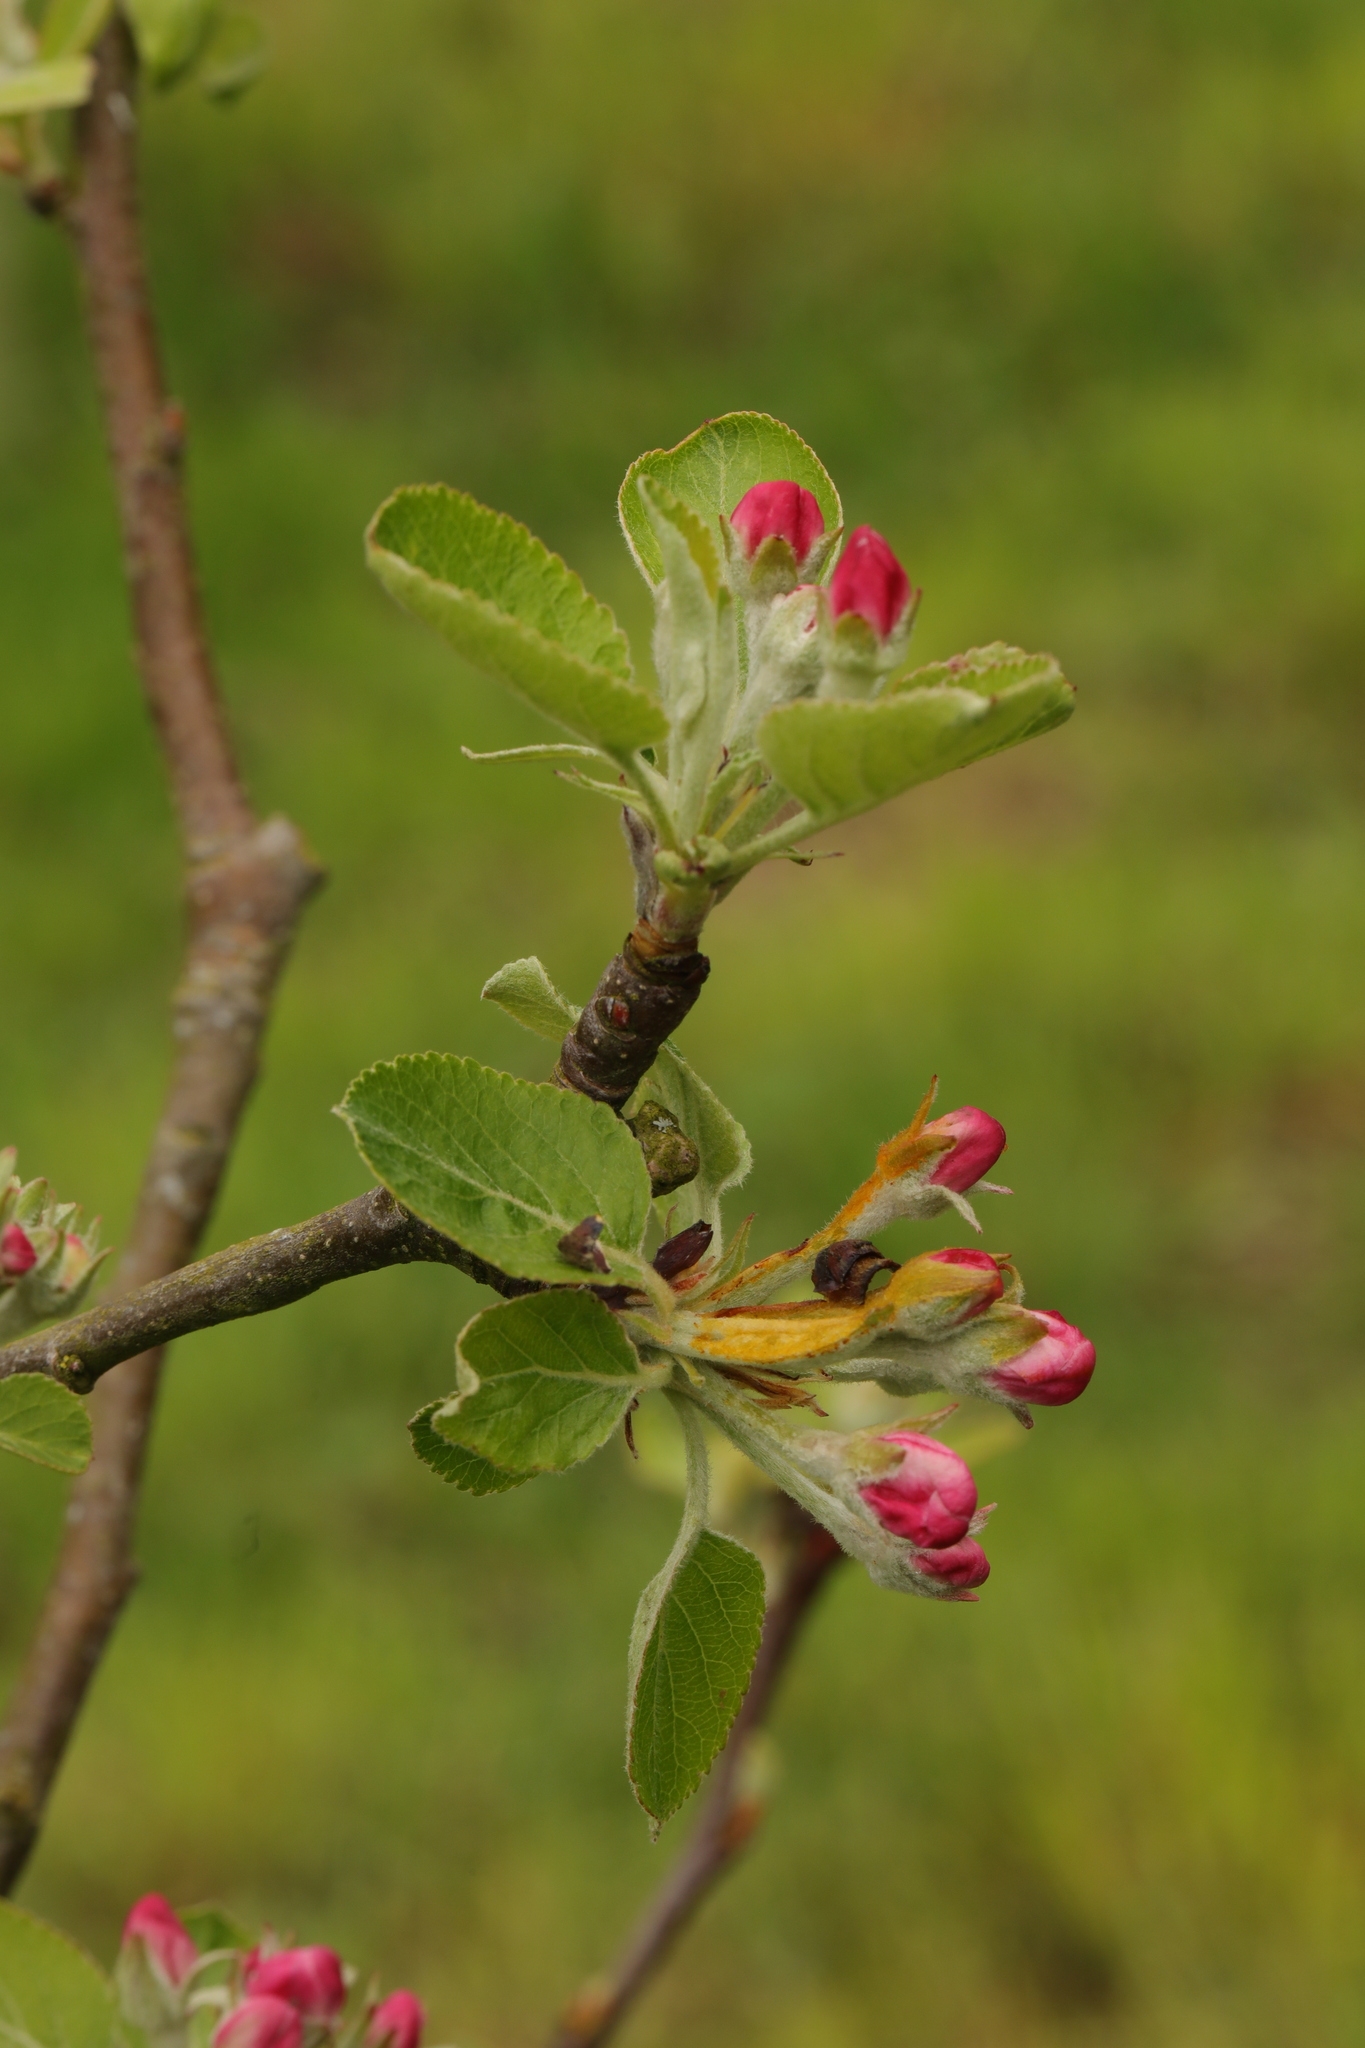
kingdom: Plantae
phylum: Tracheophyta
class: Magnoliopsida
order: Rosales
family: Rosaceae
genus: Malus
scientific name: Malus domestica
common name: Apple
